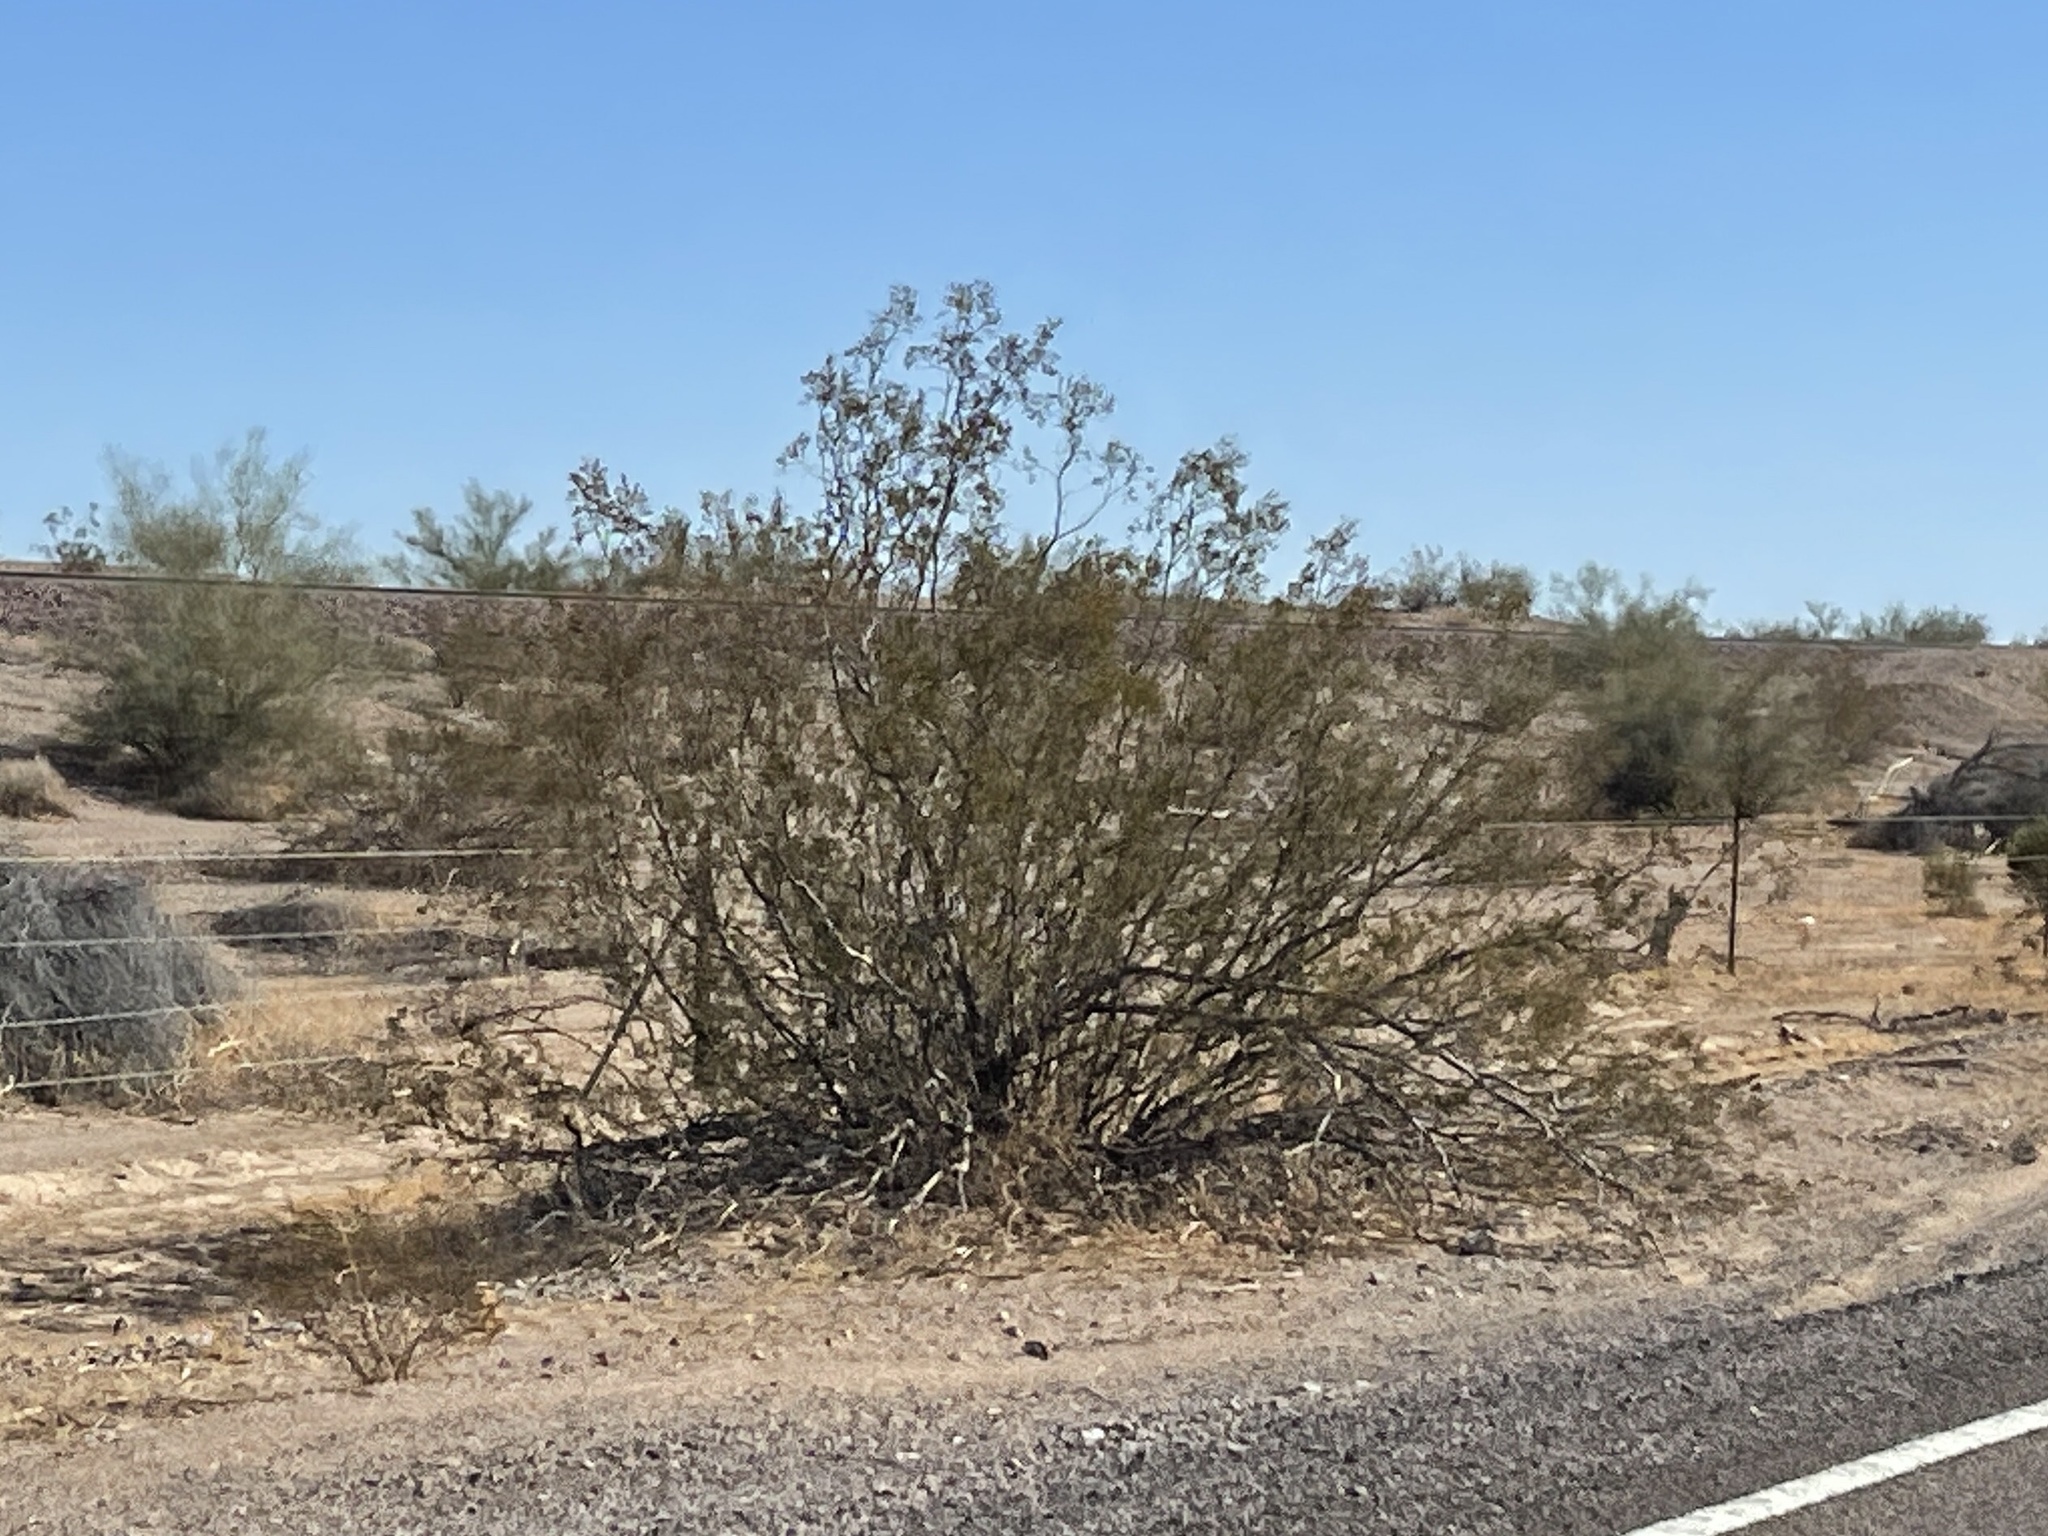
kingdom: Plantae
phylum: Tracheophyta
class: Magnoliopsida
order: Zygophyllales
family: Zygophyllaceae
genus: Larrea
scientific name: Larrea tridentata
